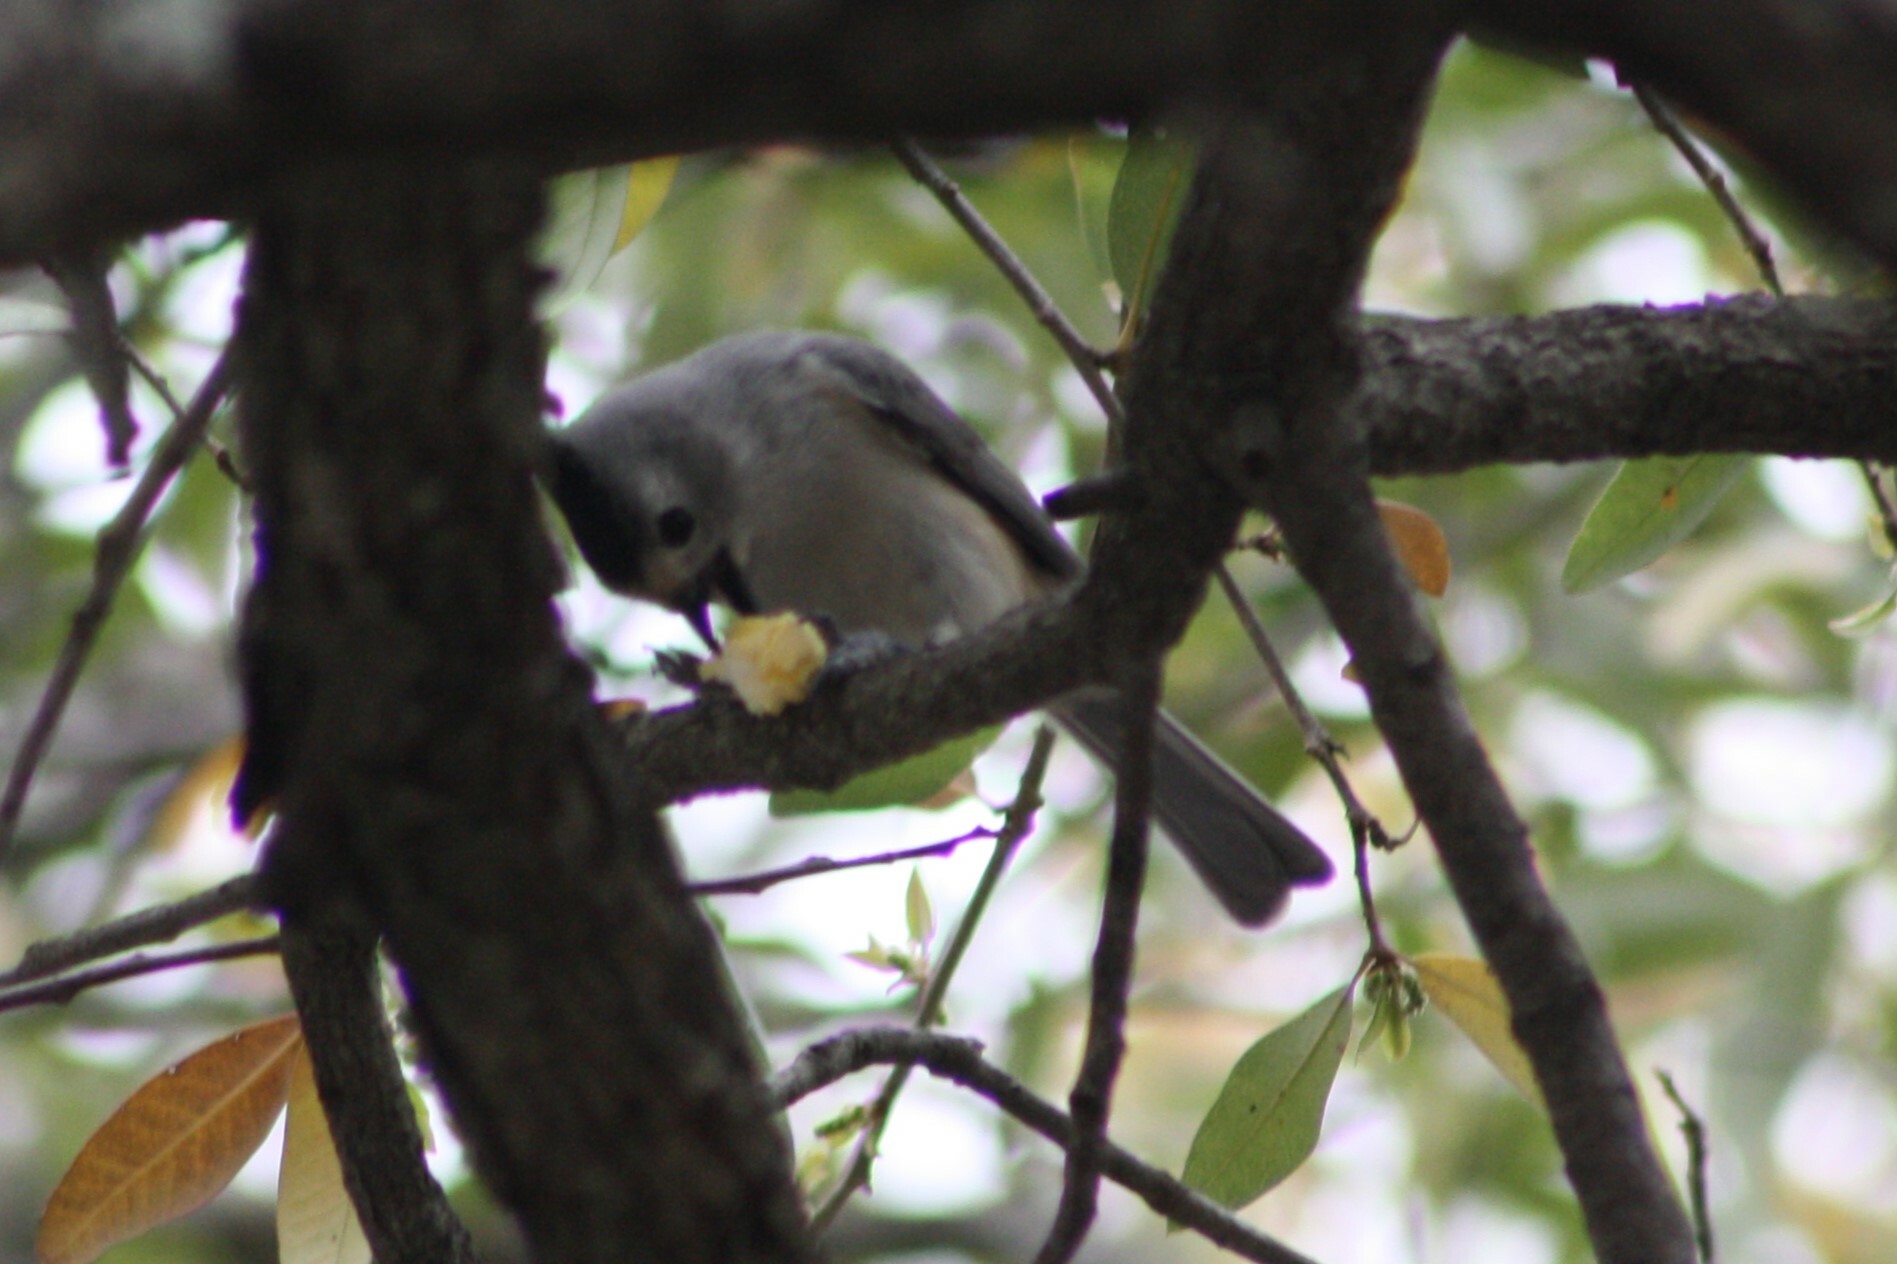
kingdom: Animalia
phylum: Chordata
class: Aves
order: Passeriformes
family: Paridae
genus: Baeolophus
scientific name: Baeolophus atricristatus
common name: Black-crested titmouse
